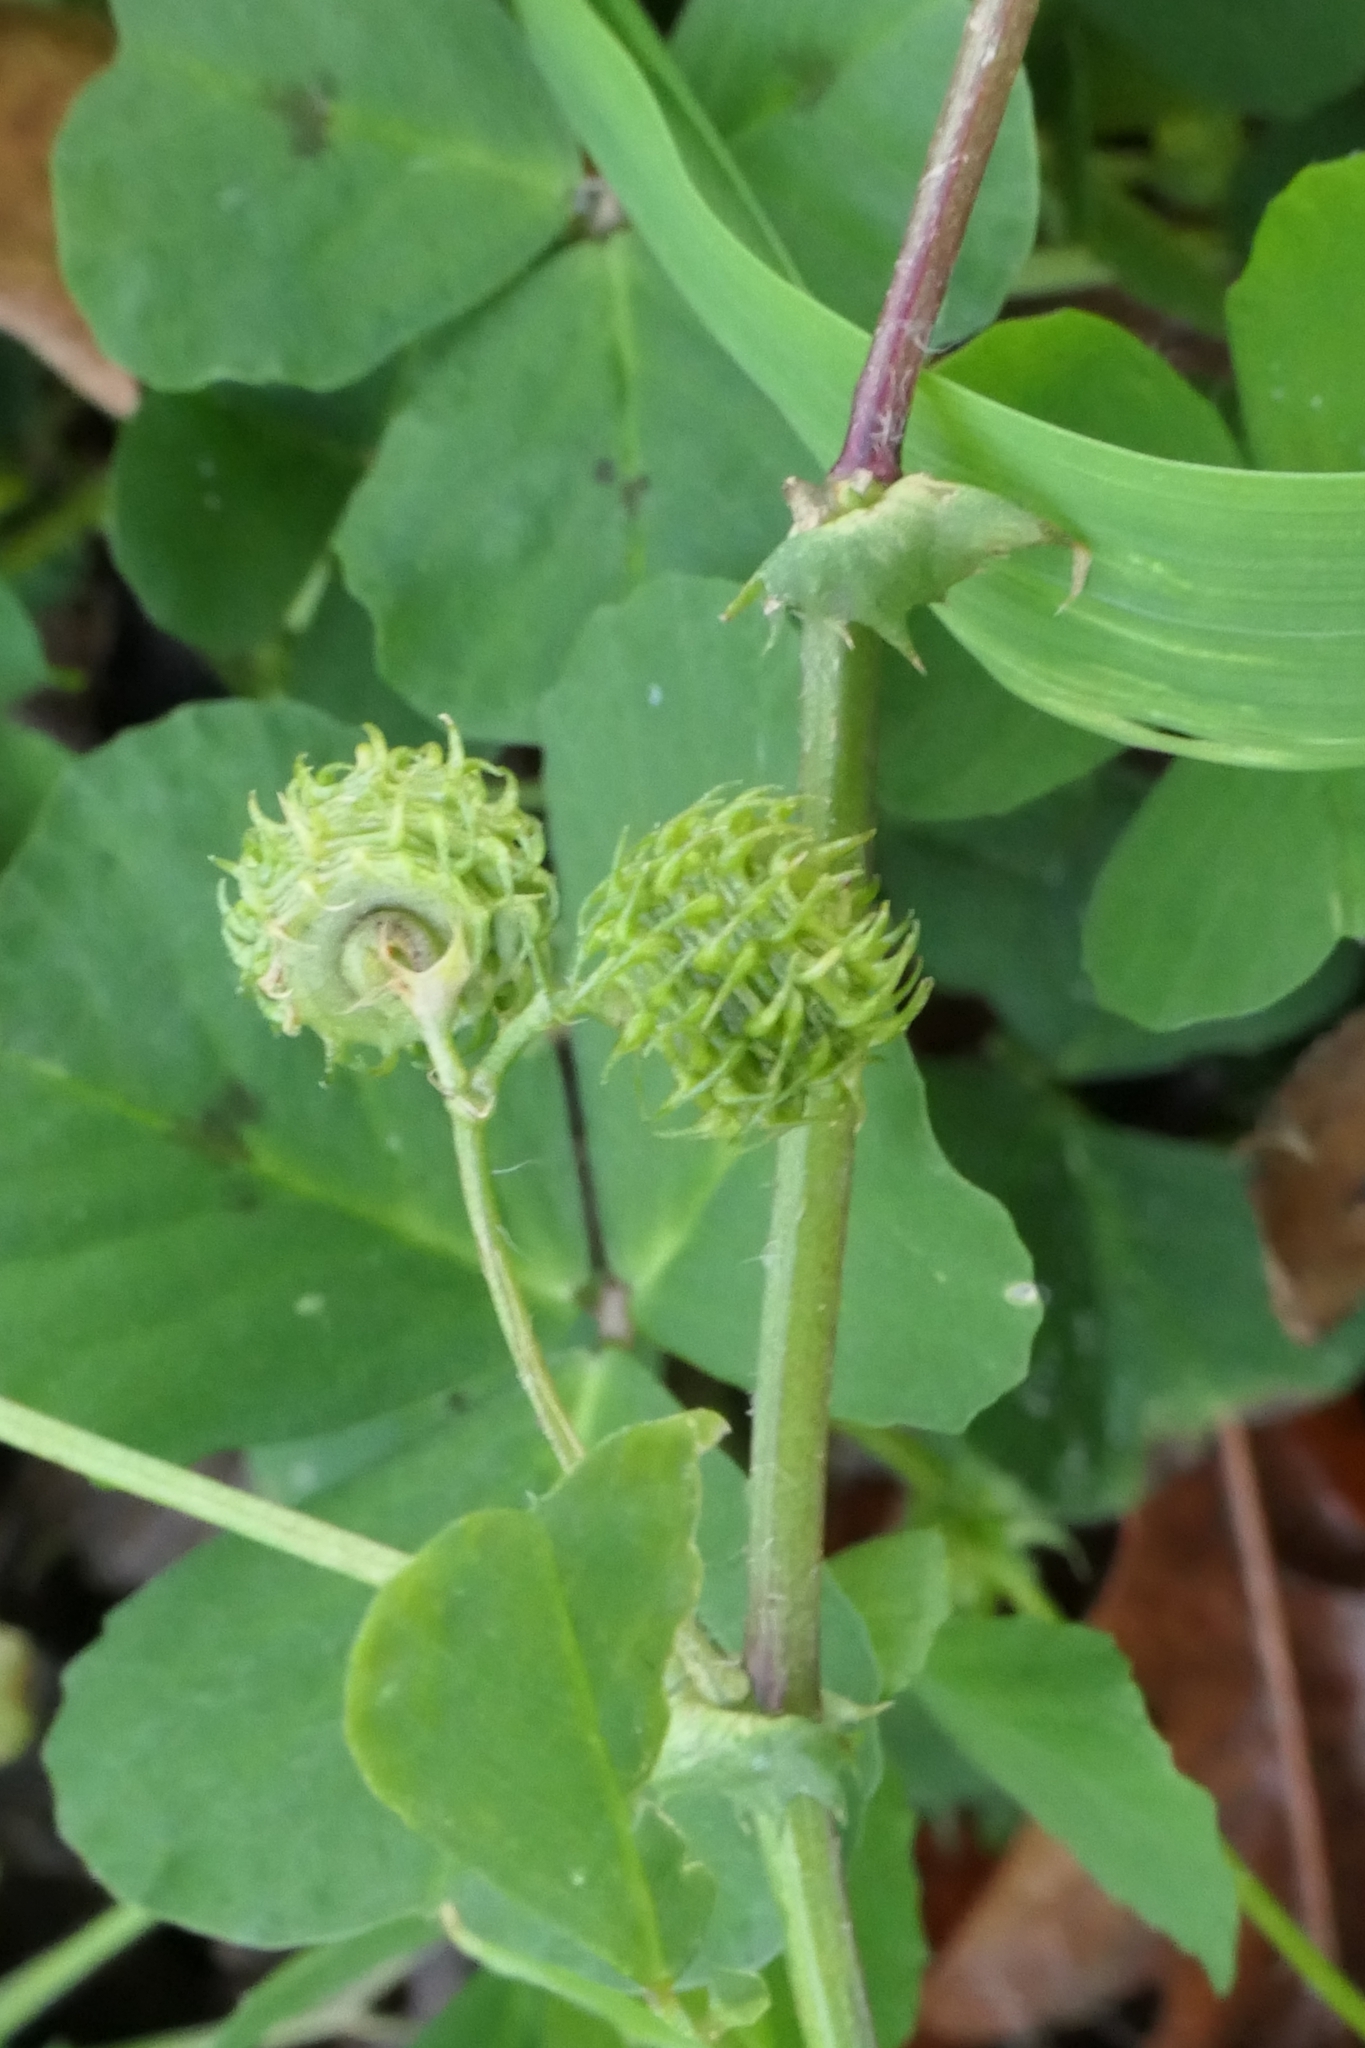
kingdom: Plantae
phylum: Tracheophyta
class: Magnoliopsida
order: Fabales
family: Fabaceae
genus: Medicago
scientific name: Medicago arabica
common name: Spotted medick
